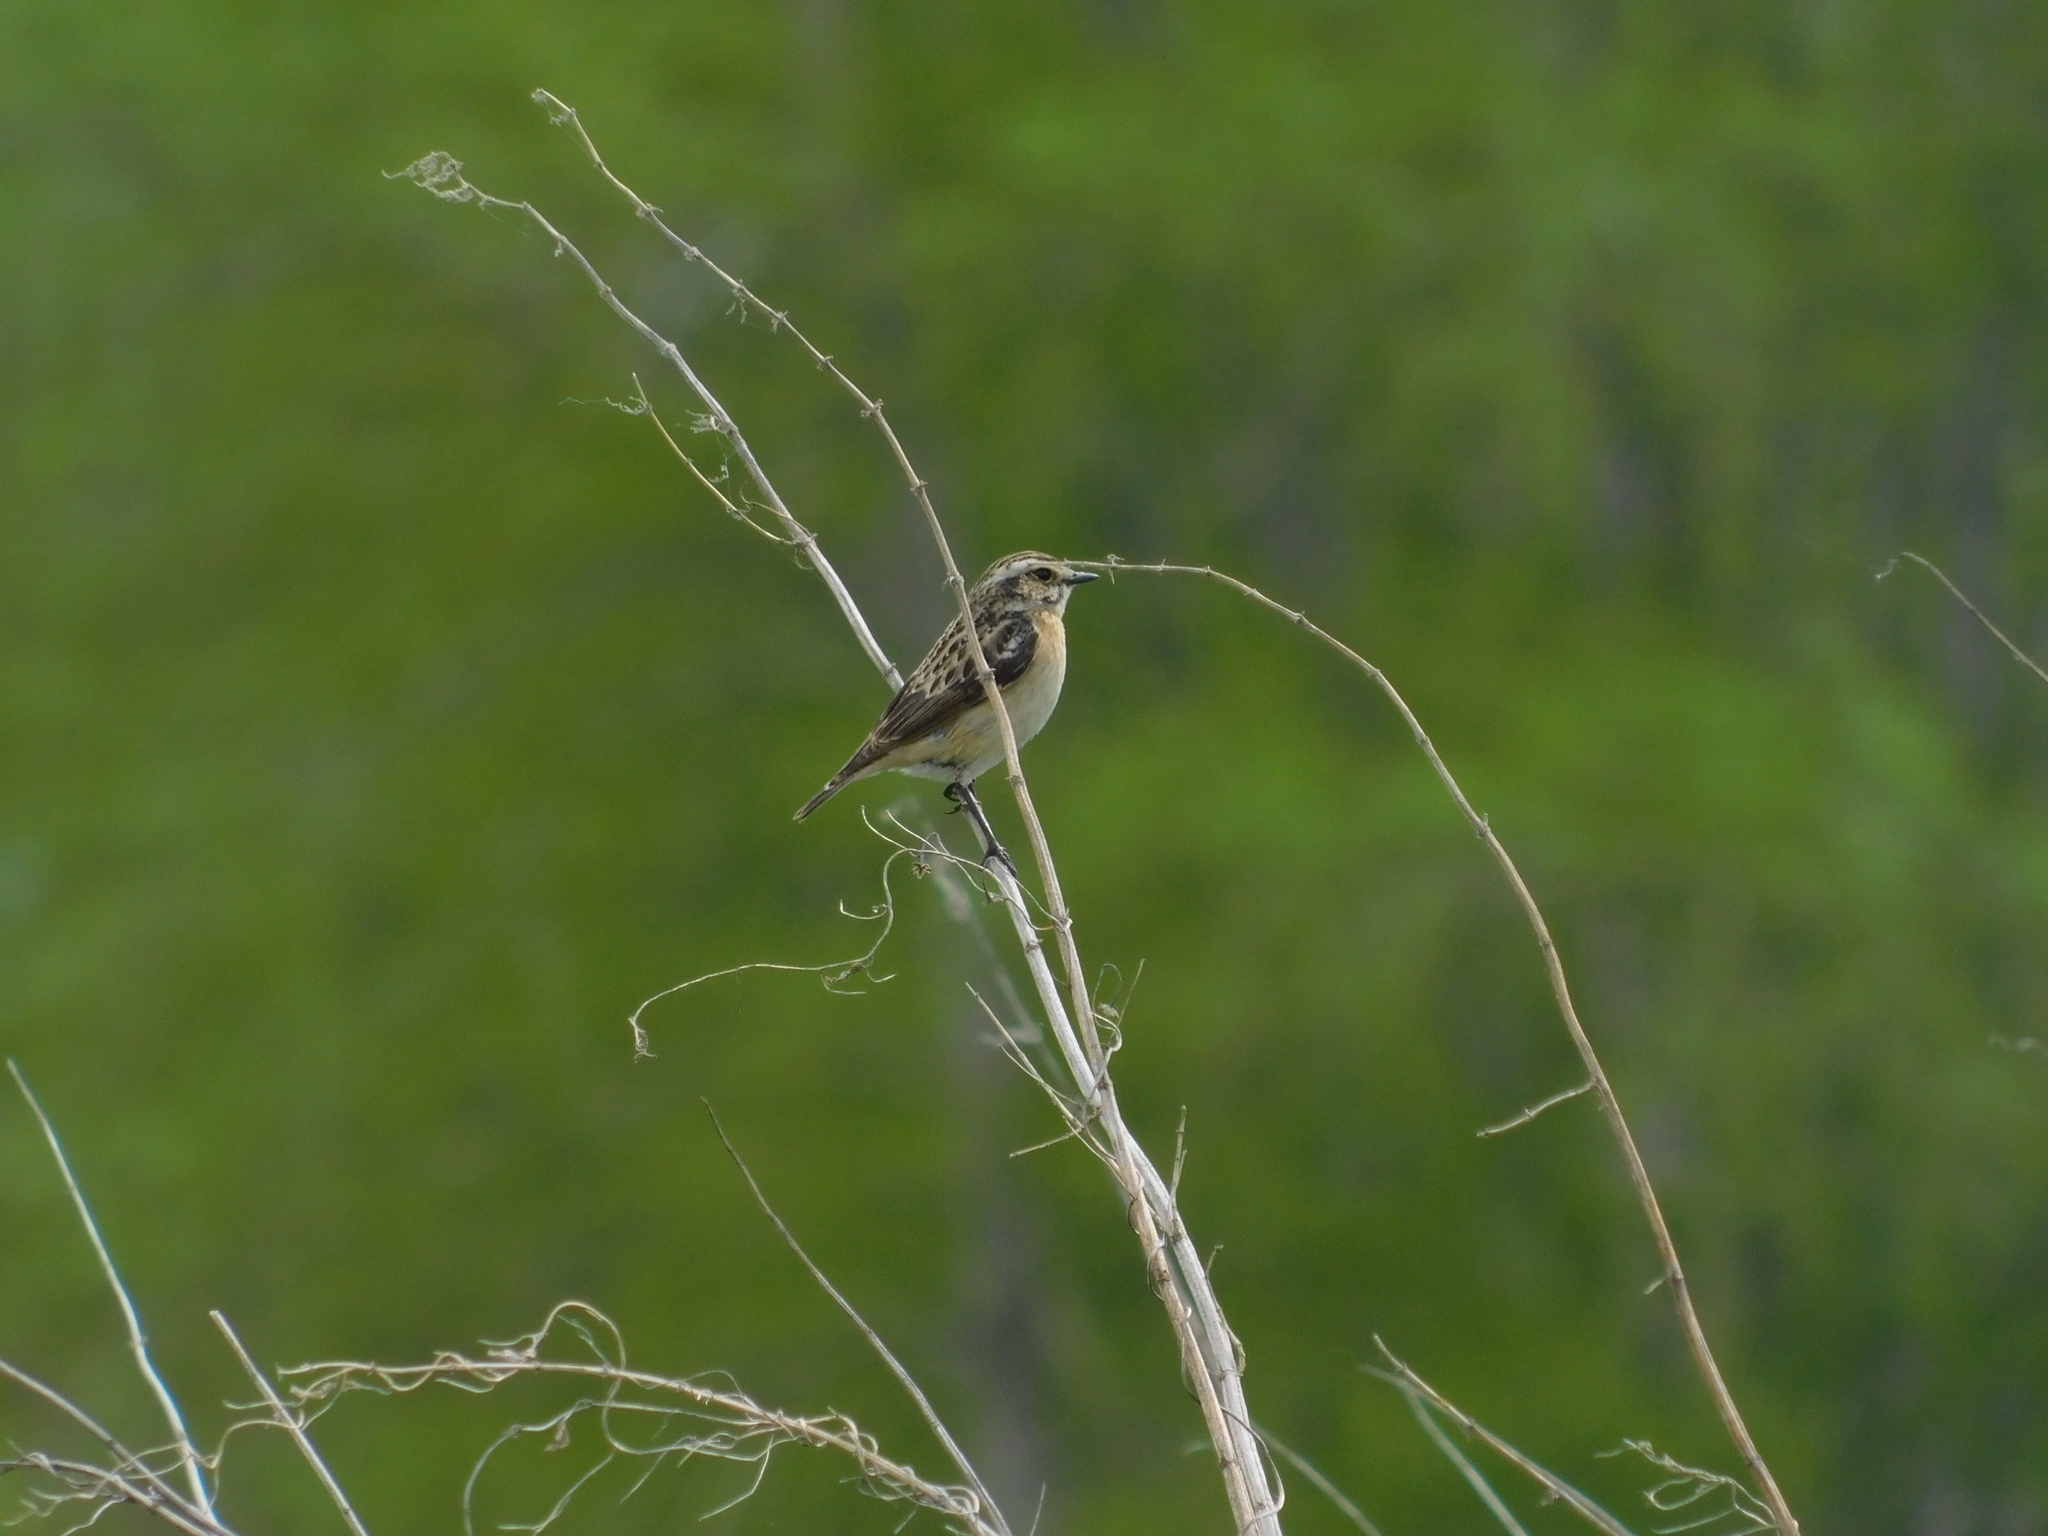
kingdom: Animalia
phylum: Chordata
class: Aves
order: Passeriformes
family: Muscicapidae
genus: Saxicola
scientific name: Saxicola rubetra
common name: Whinchat
